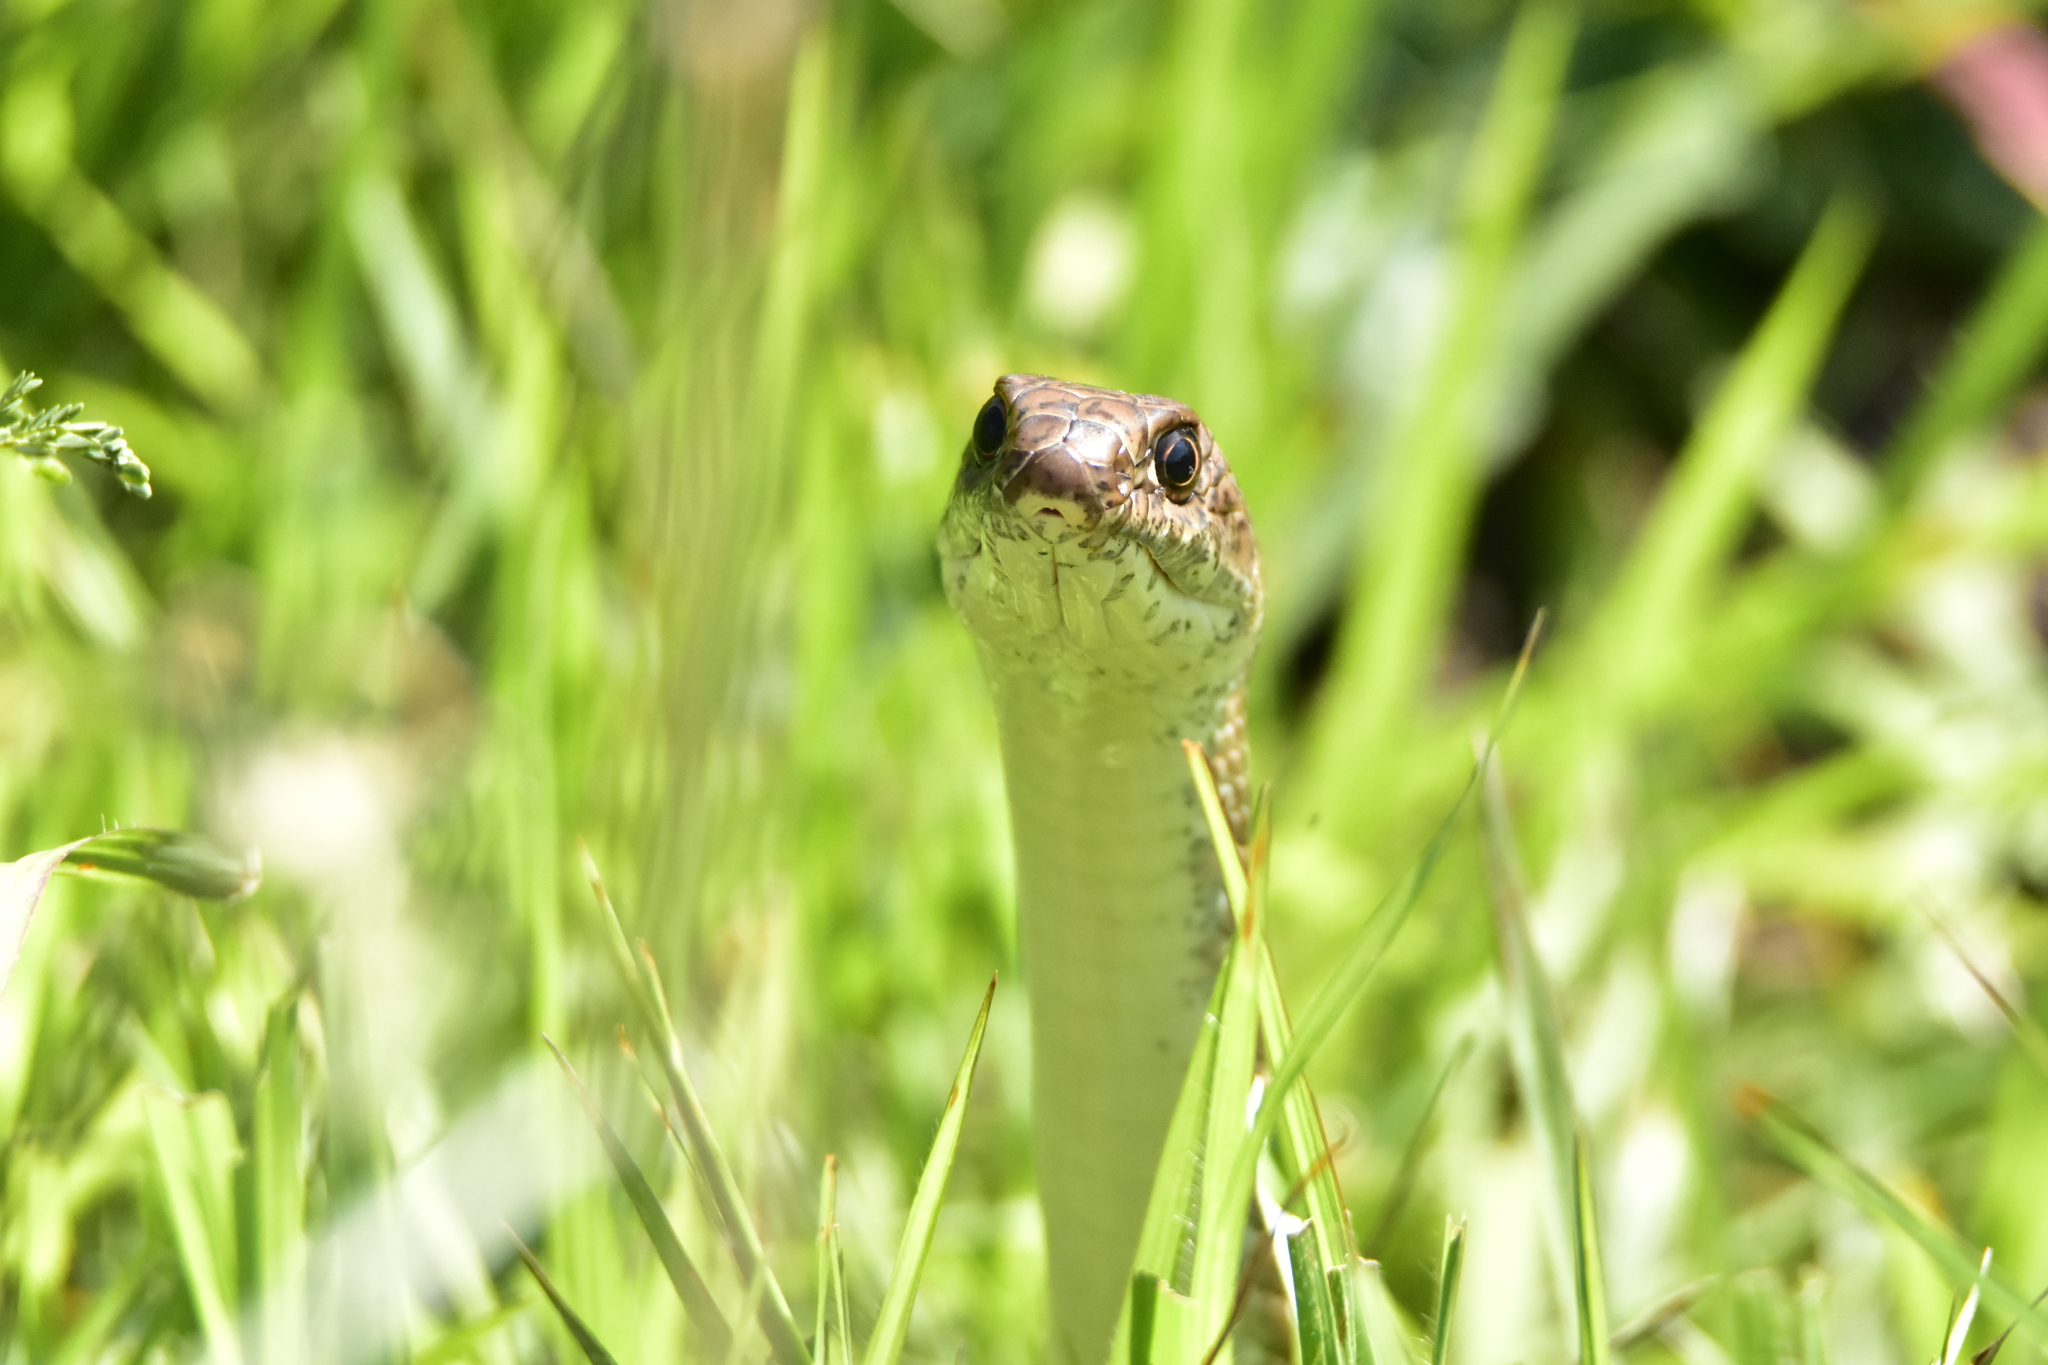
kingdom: Animalia
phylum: Chordata
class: Squamata
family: Colubridae
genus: Masticophis
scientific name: Masticophis mentovarius
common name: Neotropical whip snake
